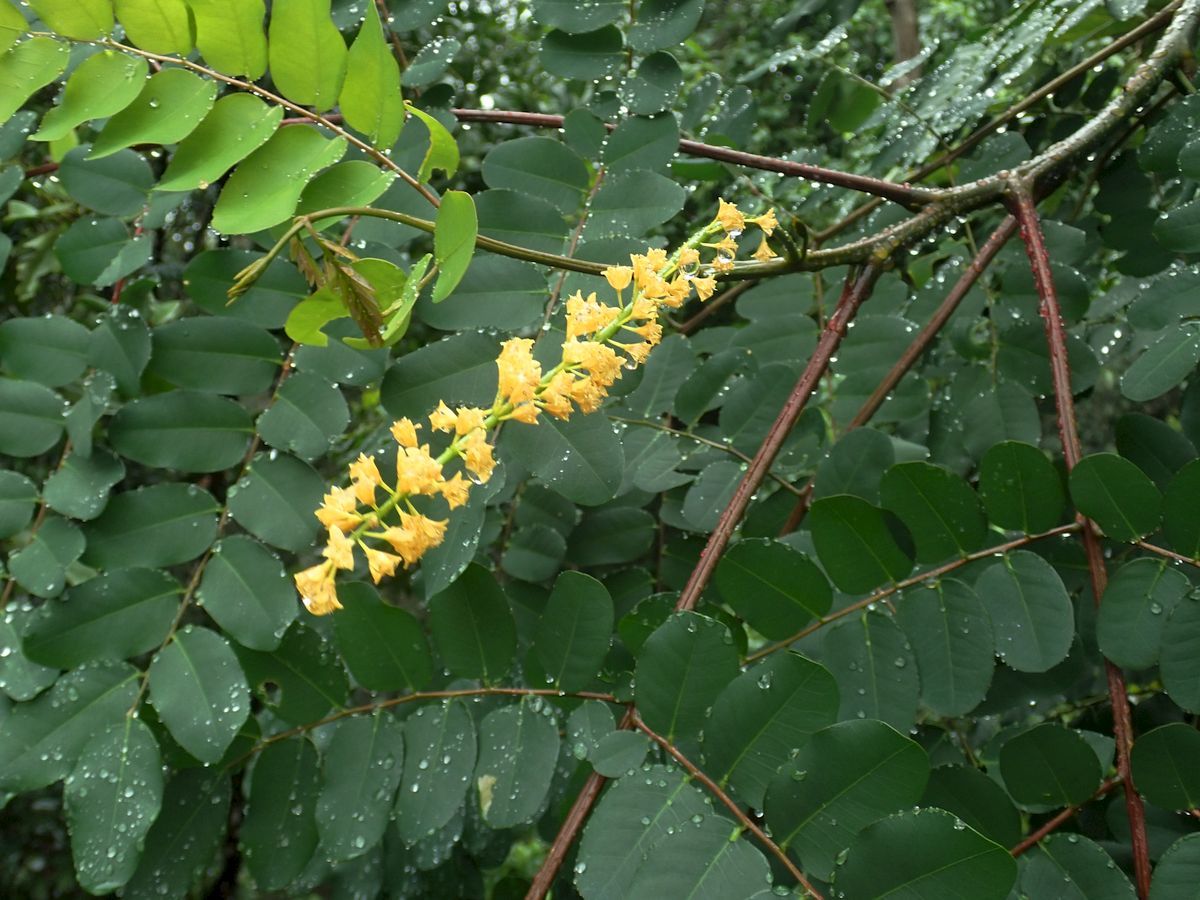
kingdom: Plantae
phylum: Tracheophyta
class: Magnoliopsida
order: Fabales
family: Fabaceae
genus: Adenanthera
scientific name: Adenanthera pavonina
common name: Red beadtree
